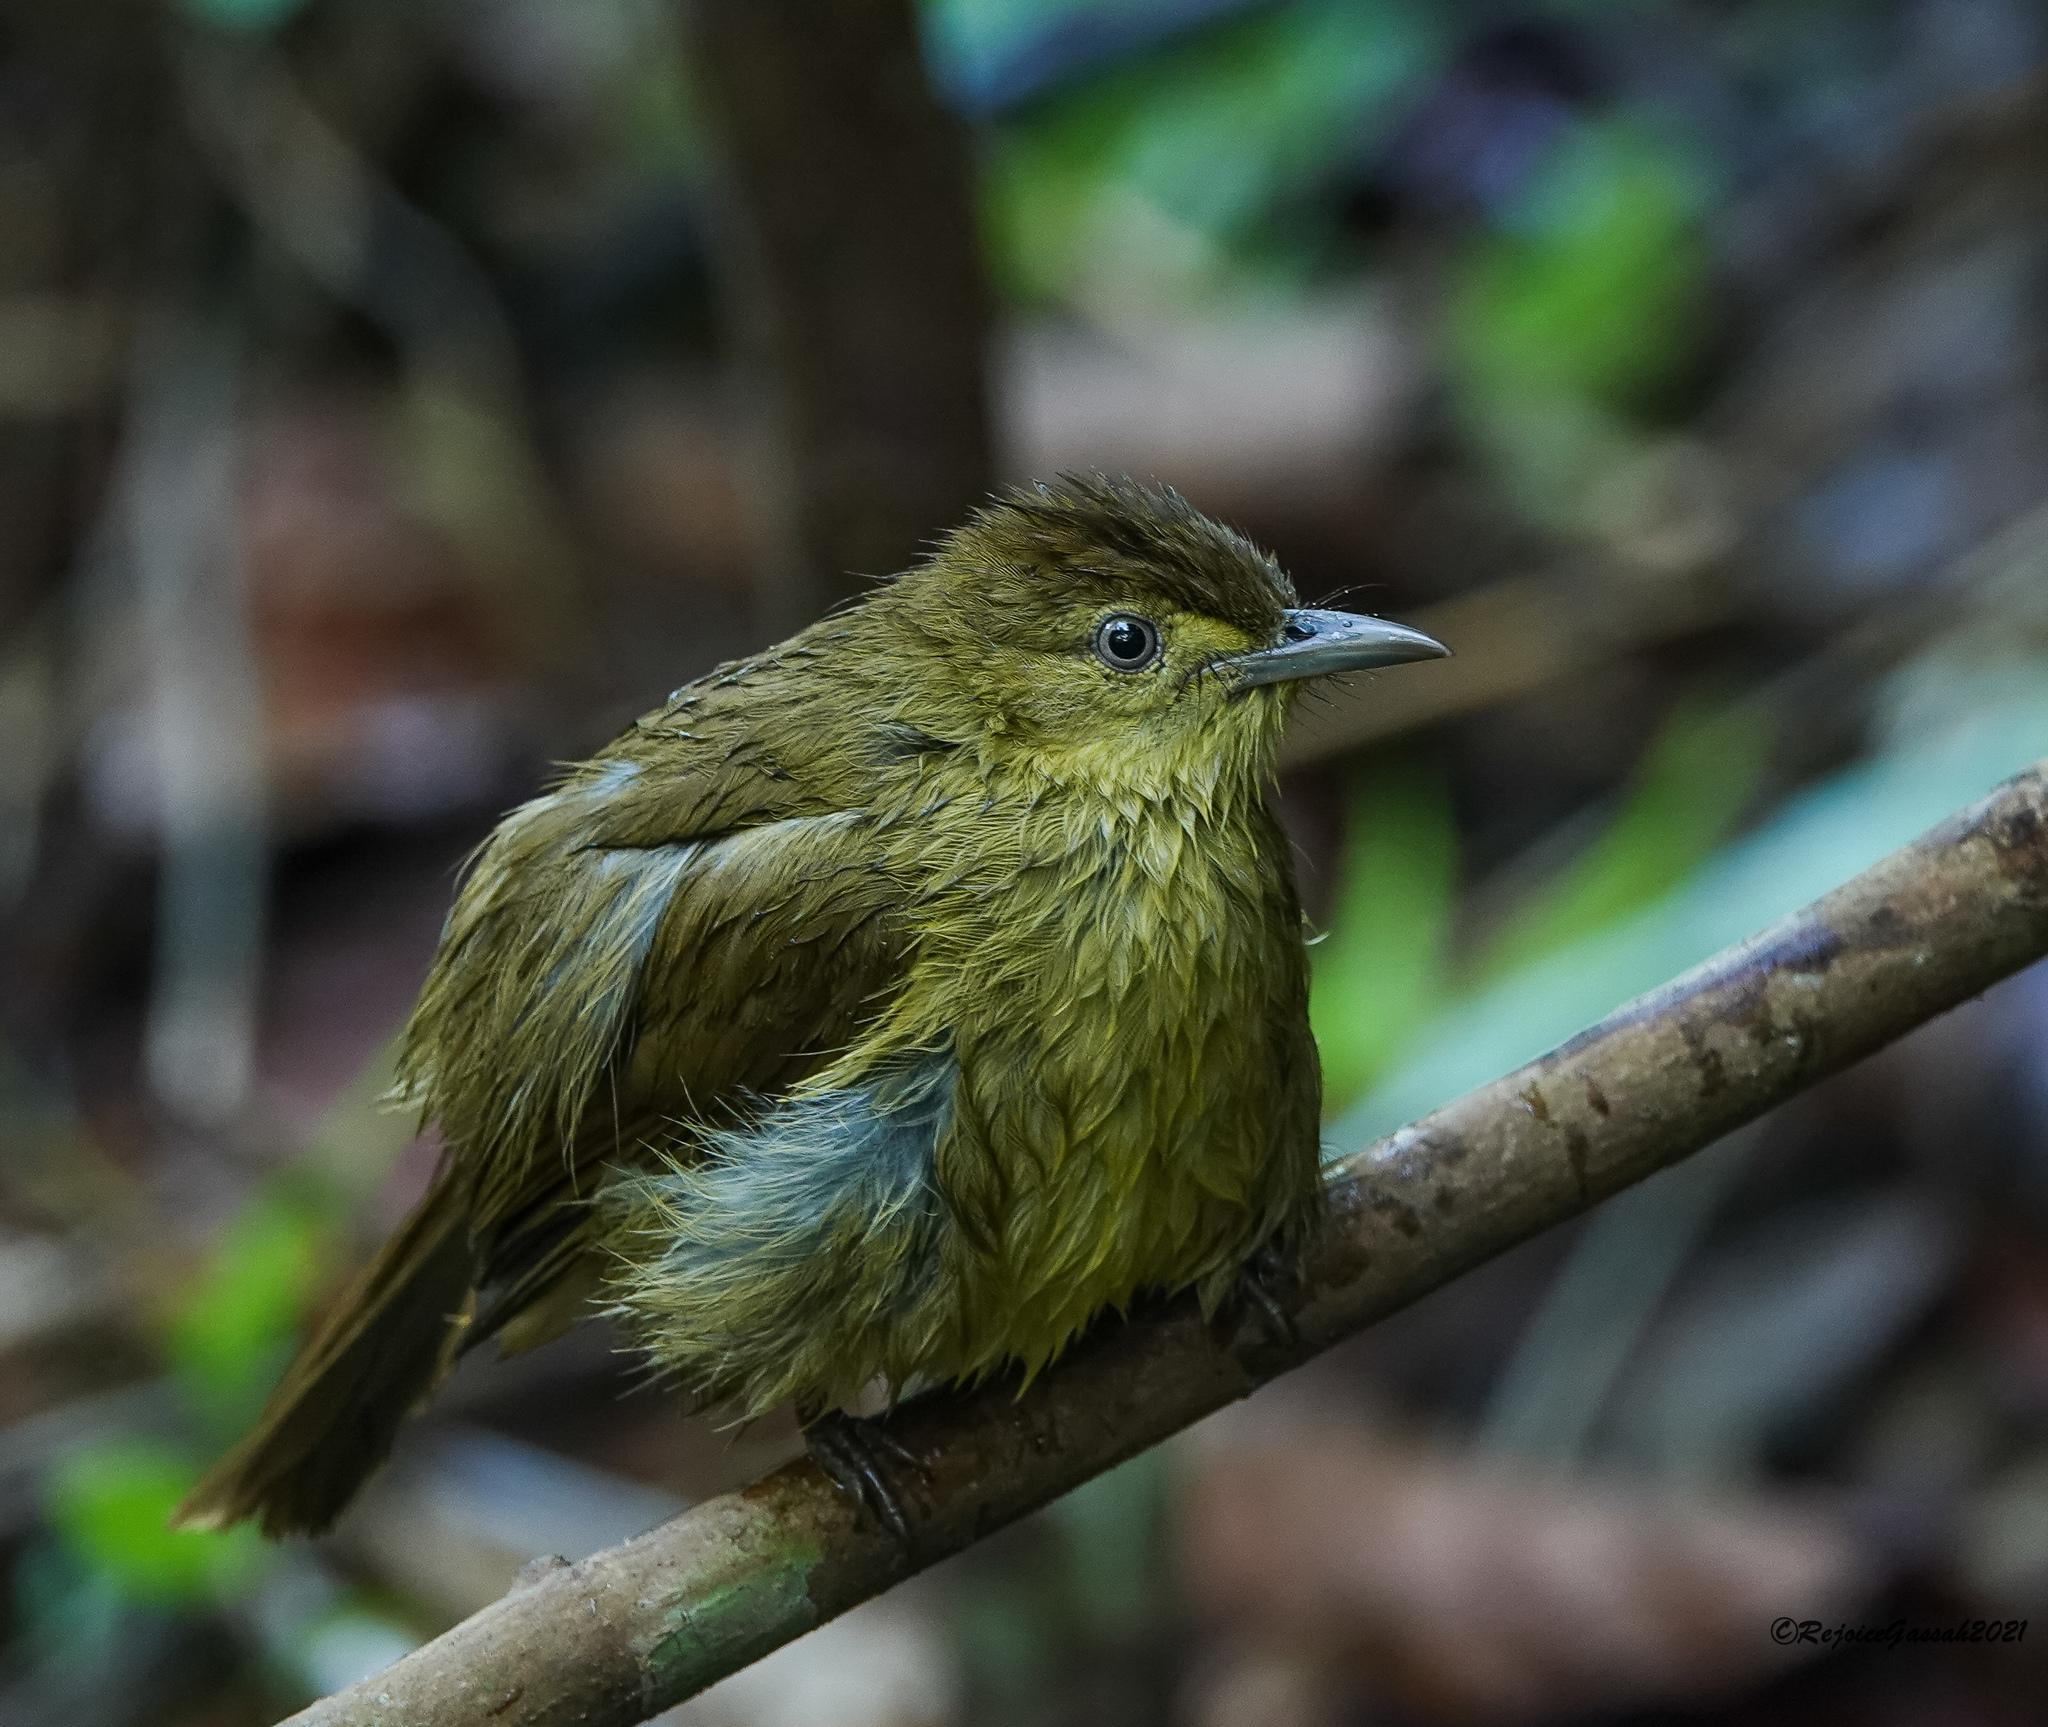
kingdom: Animalia
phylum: Chordata
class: Aves
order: Passeriformes
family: Pycnonotidae
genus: Iole
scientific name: Iole virescens
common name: Olive bulbul
